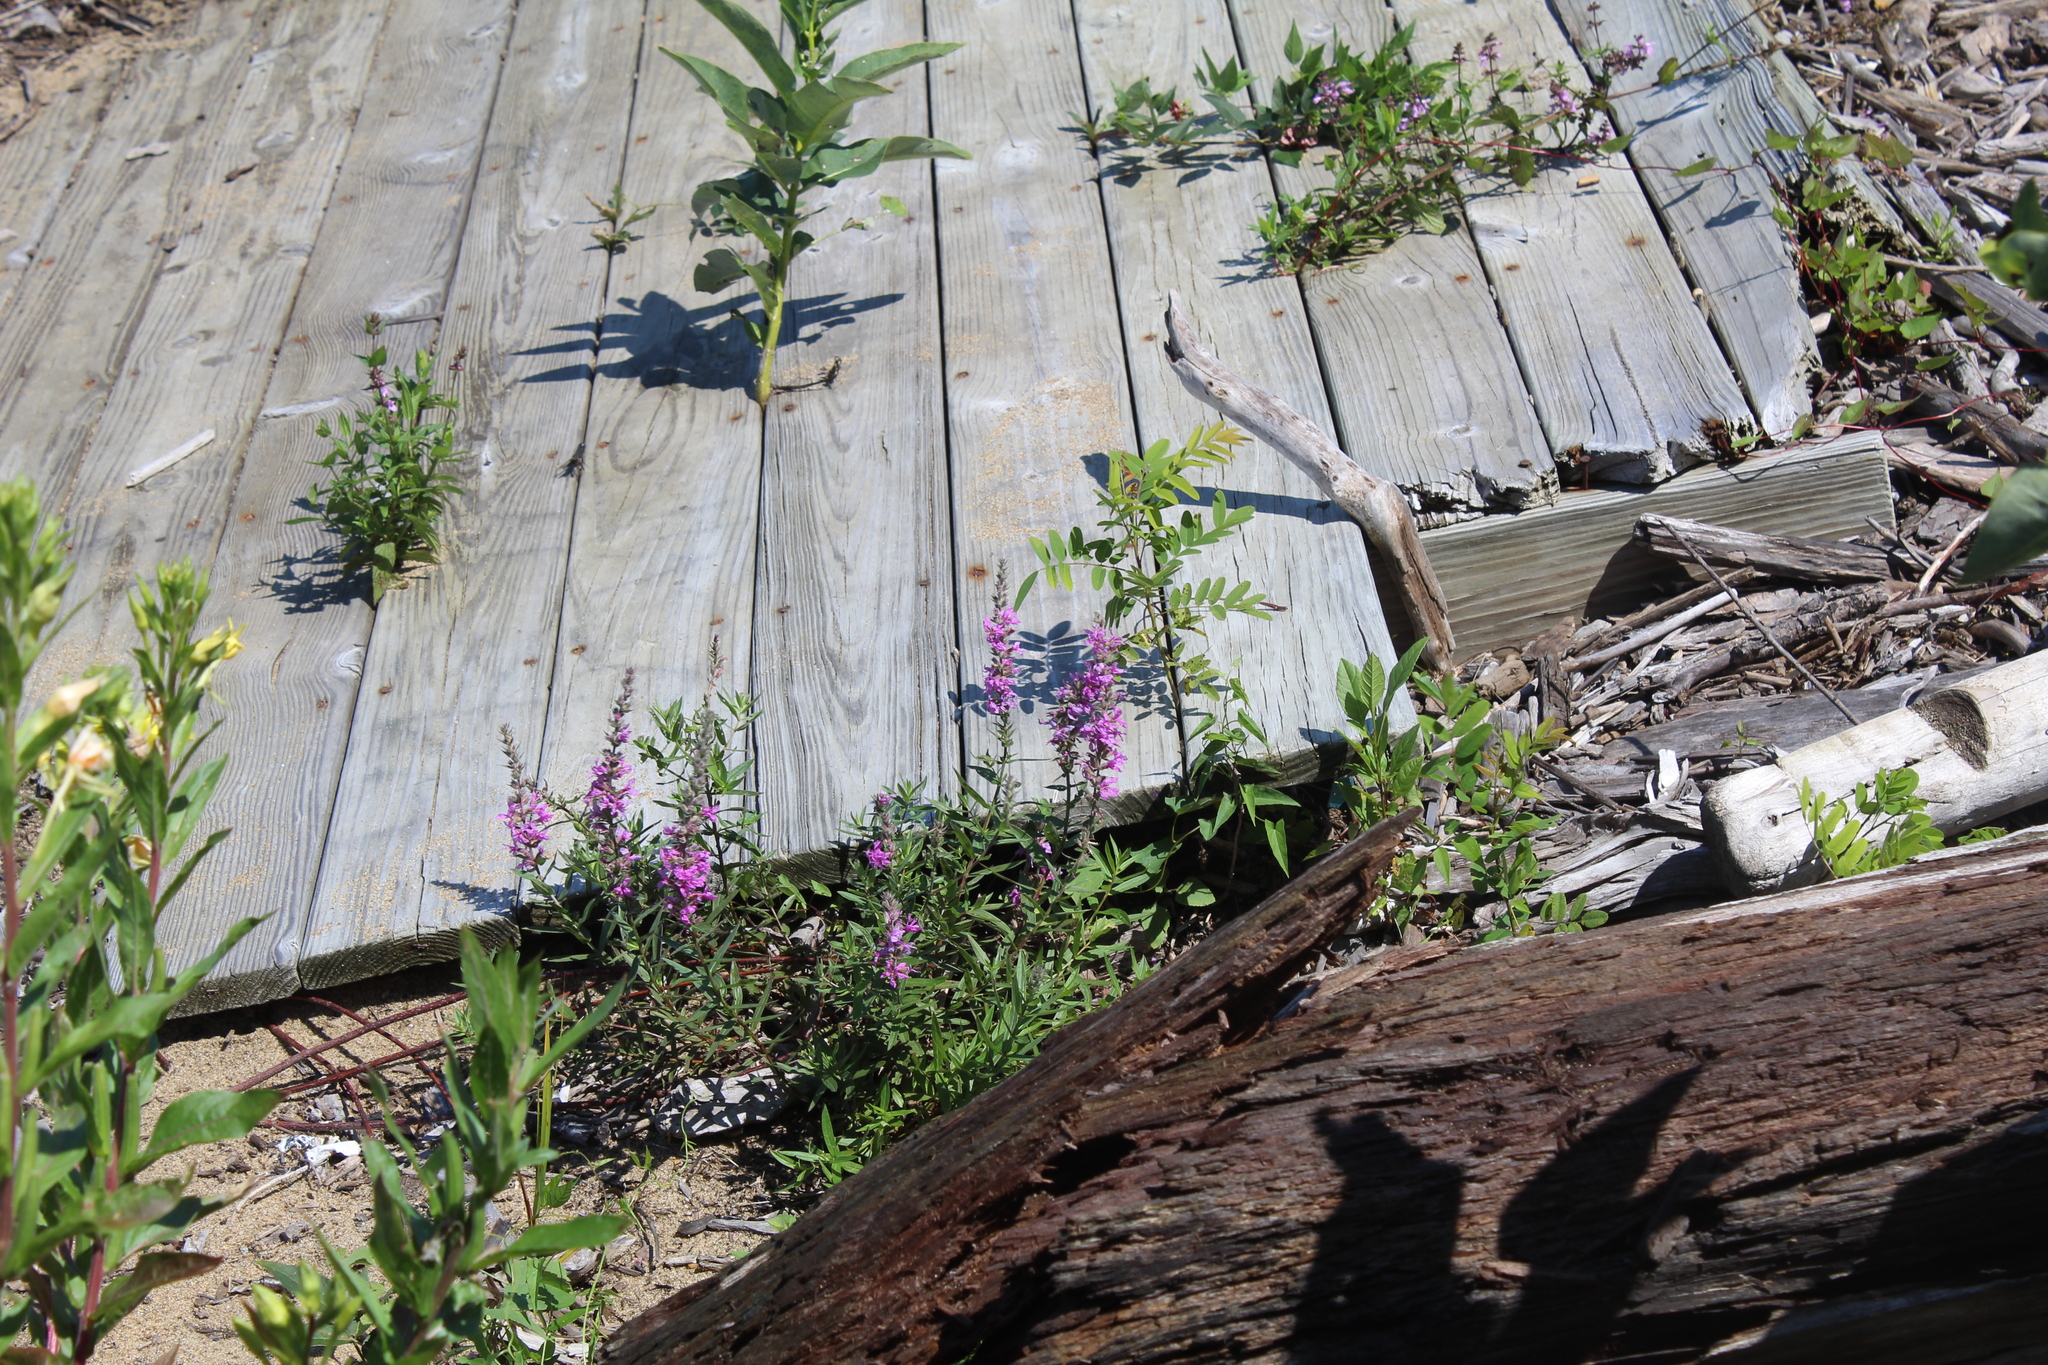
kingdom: Plantae
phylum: Tracheophyta
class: Magnoliopsida
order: Myrtales
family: Lythraceae
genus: Lythrum
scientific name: Lythrum salicaria
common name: Purple loosestrife
